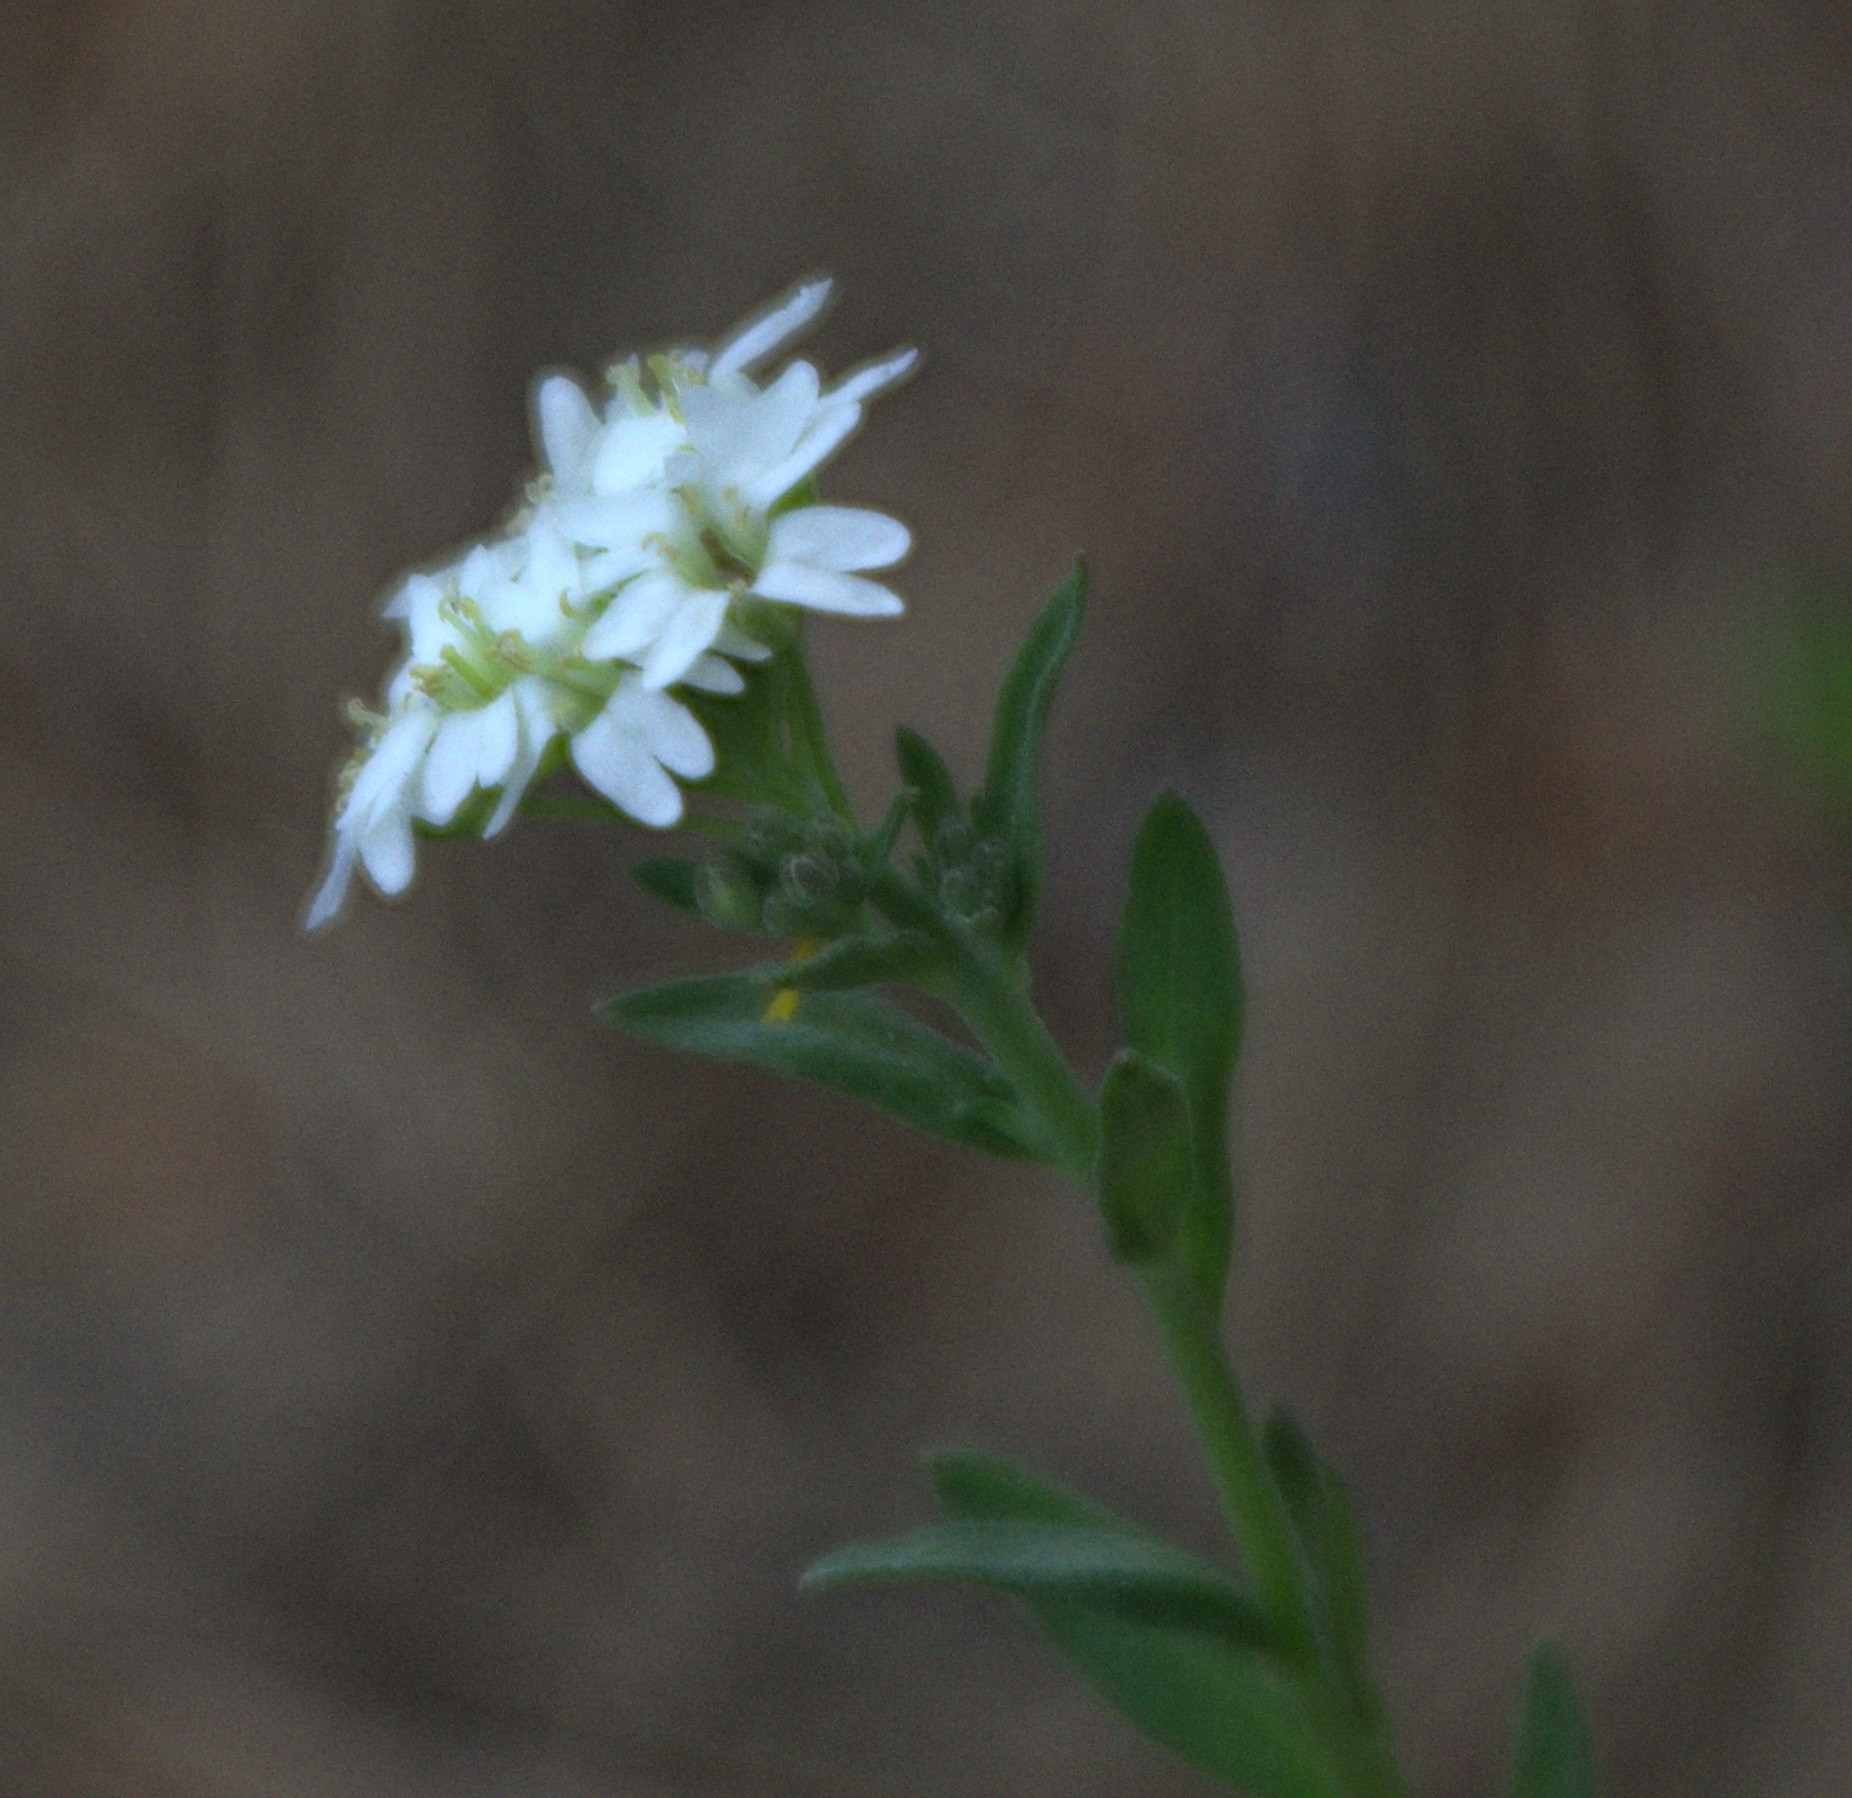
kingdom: Plantae
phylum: Tracheophyta
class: Magnoliopsida
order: Brassicales
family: Brassicaceae
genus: Berteroa
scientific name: Berteroa incana
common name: Hoary alison
